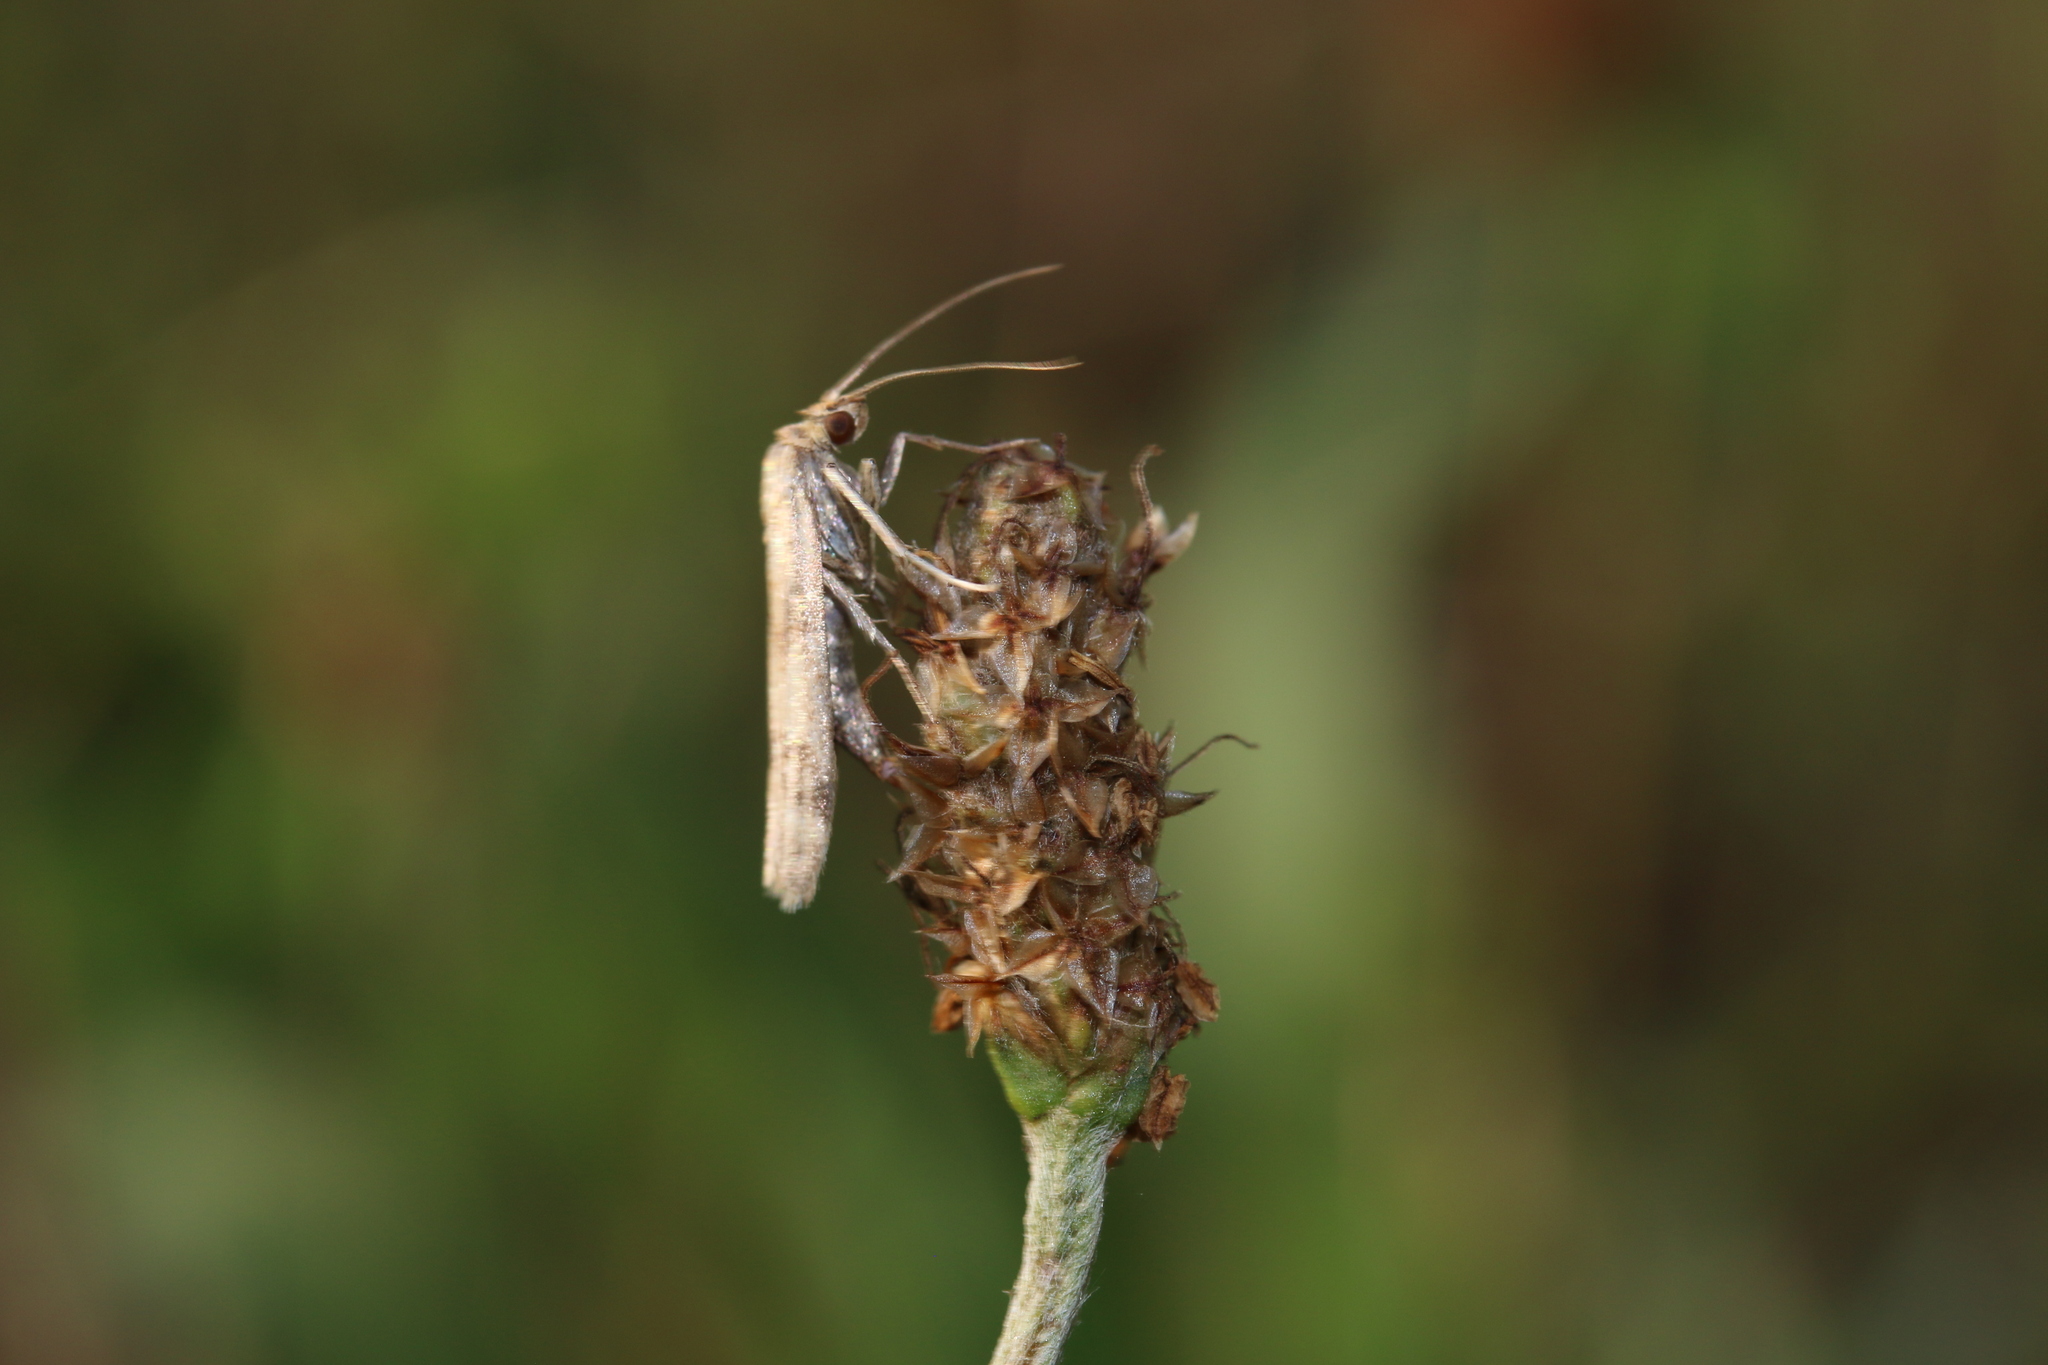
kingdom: Animalia
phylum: Arthropoda
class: Insecta
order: Lepidoptera
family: Pyralidae
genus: Homoeosoma
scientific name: Homoeosoma sinuella
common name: Twin-barred knot-horn
